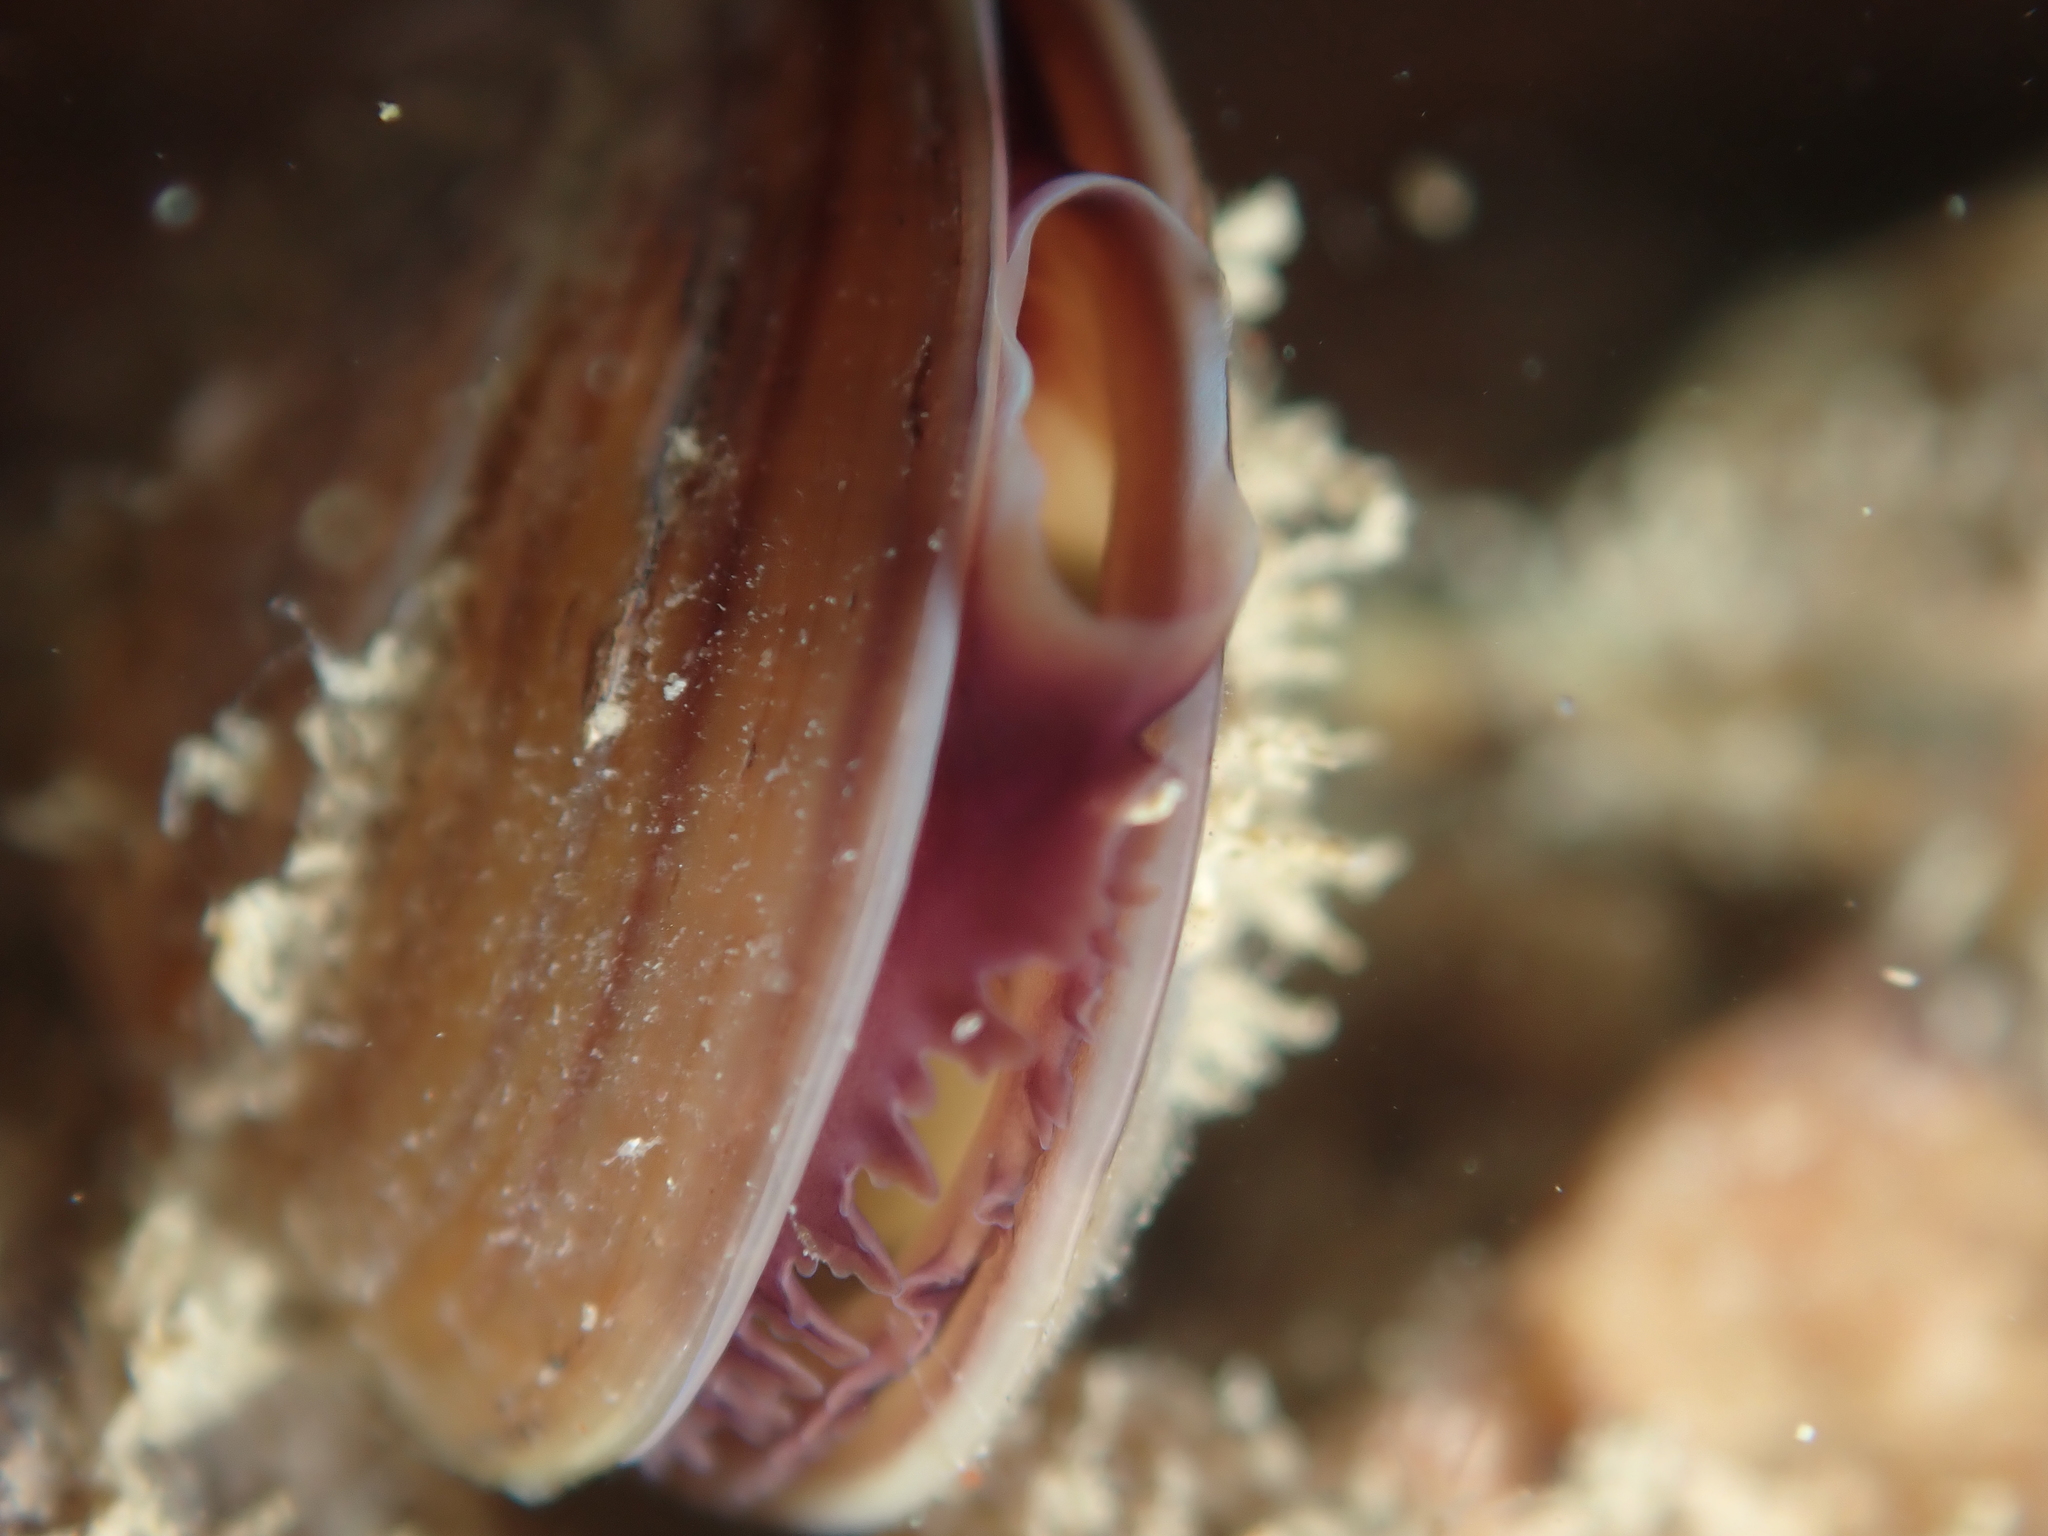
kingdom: Animalia
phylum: Mollusca
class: Bivalvia
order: Mytilida
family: Mytilidae
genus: Xenostrobus
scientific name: Xenostrobus neozelanicus
